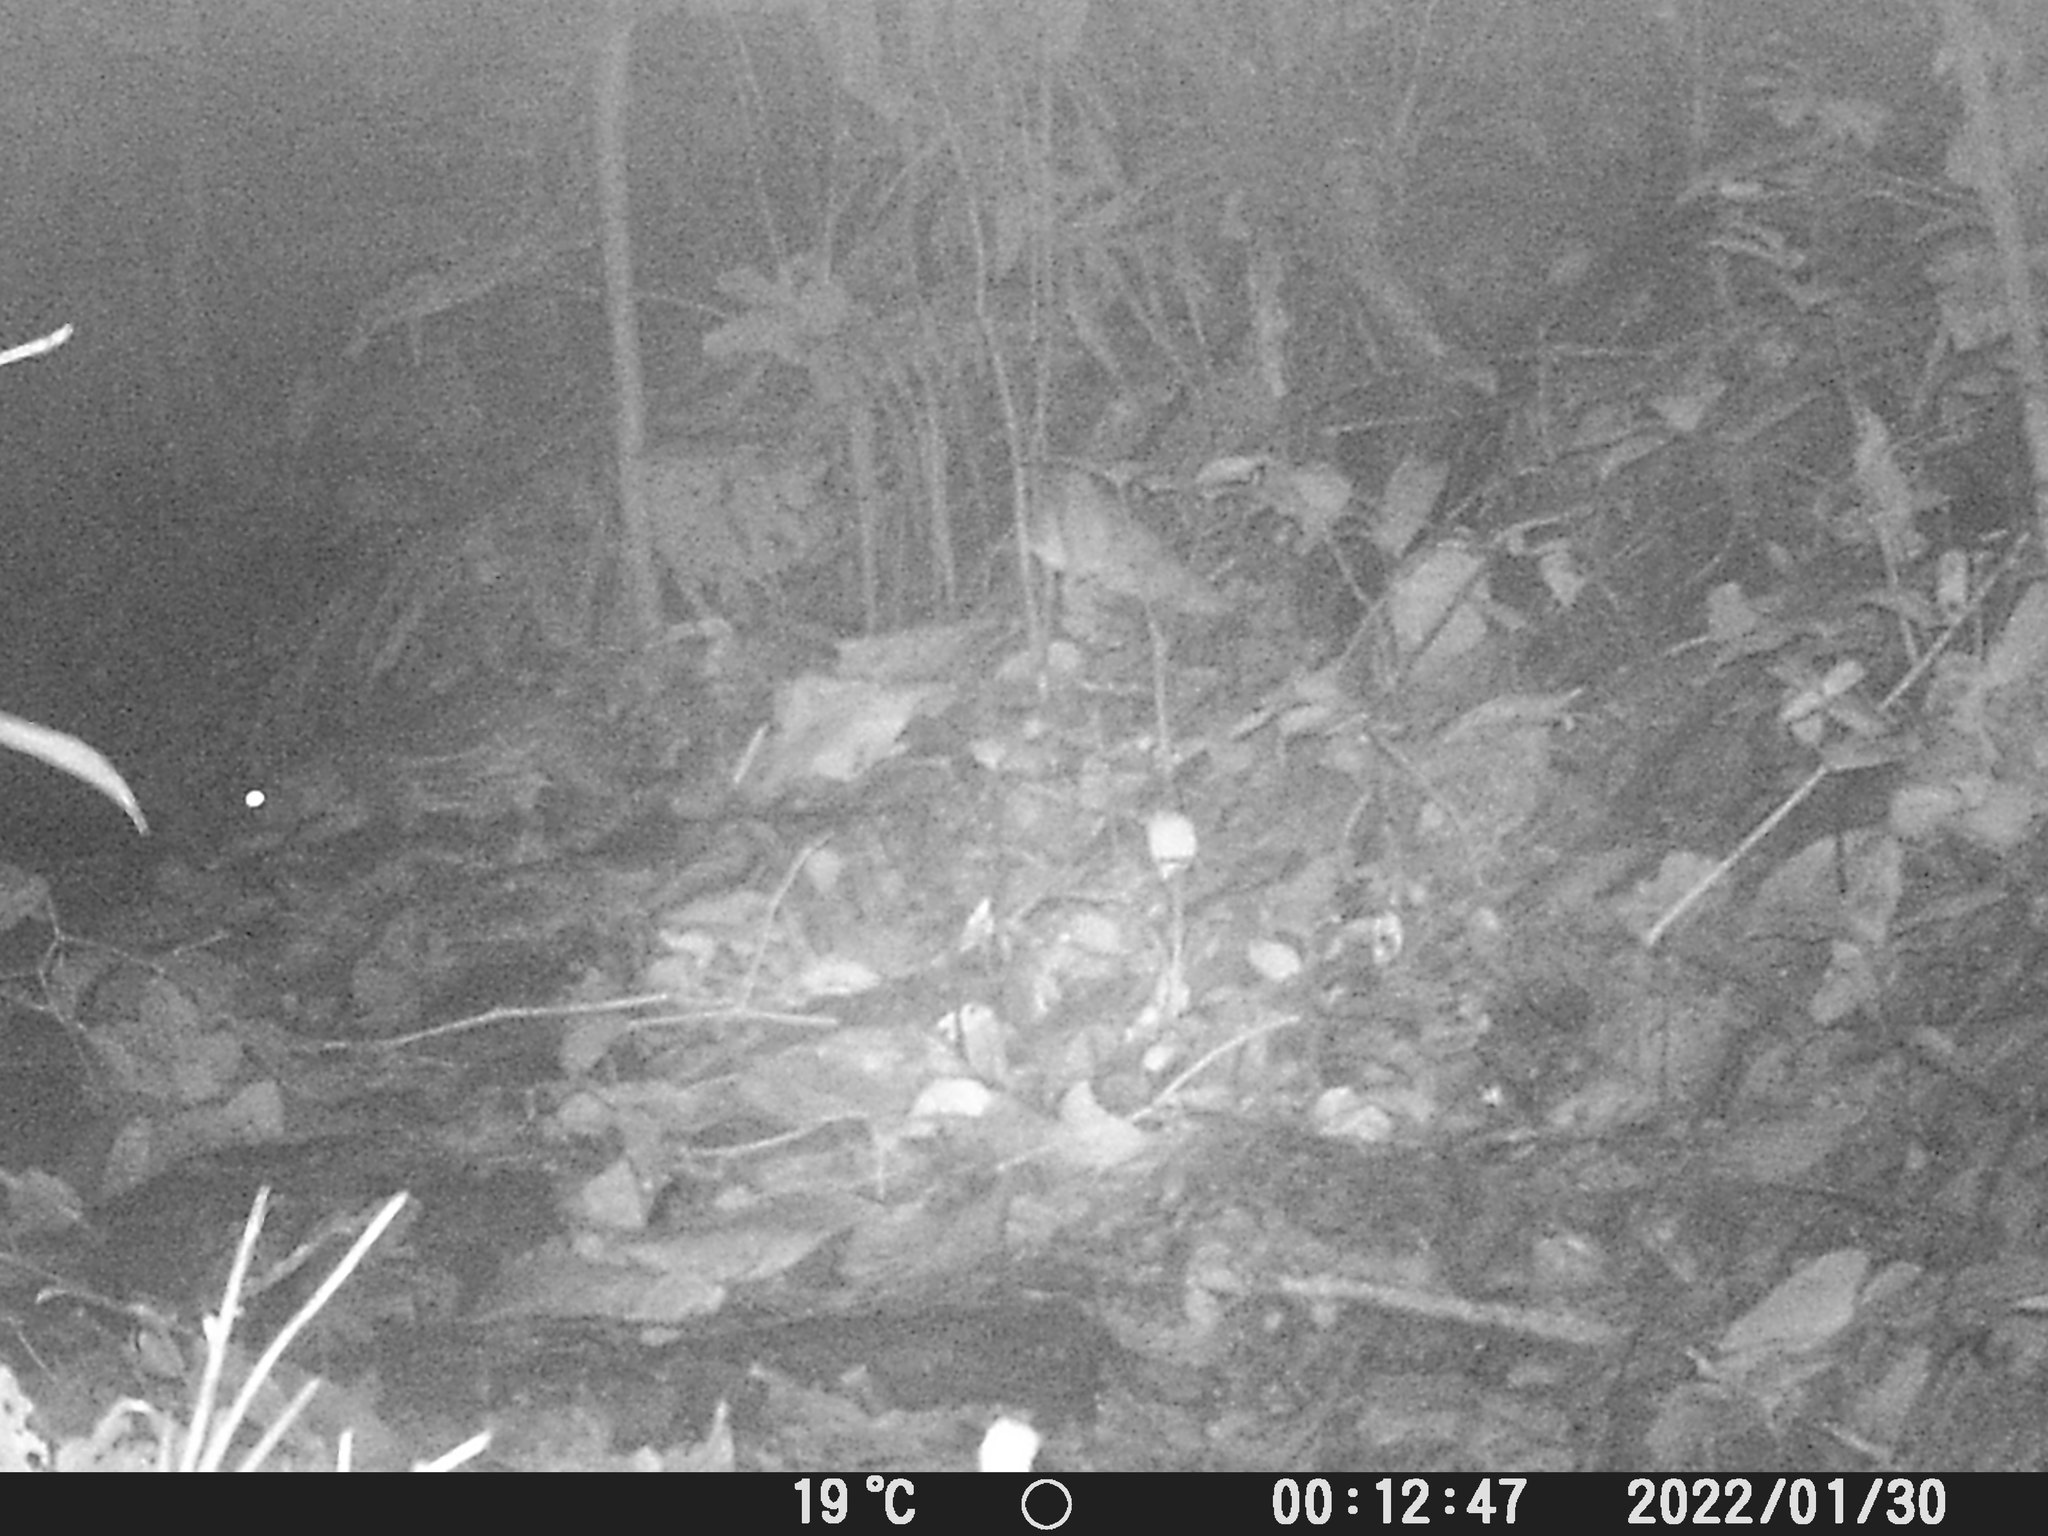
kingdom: Animalia
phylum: Chordata
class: Mammalia
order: Rodentia
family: Cuniculidae
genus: Cuniculus
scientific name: Cuniculus paca
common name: Lowland paca
